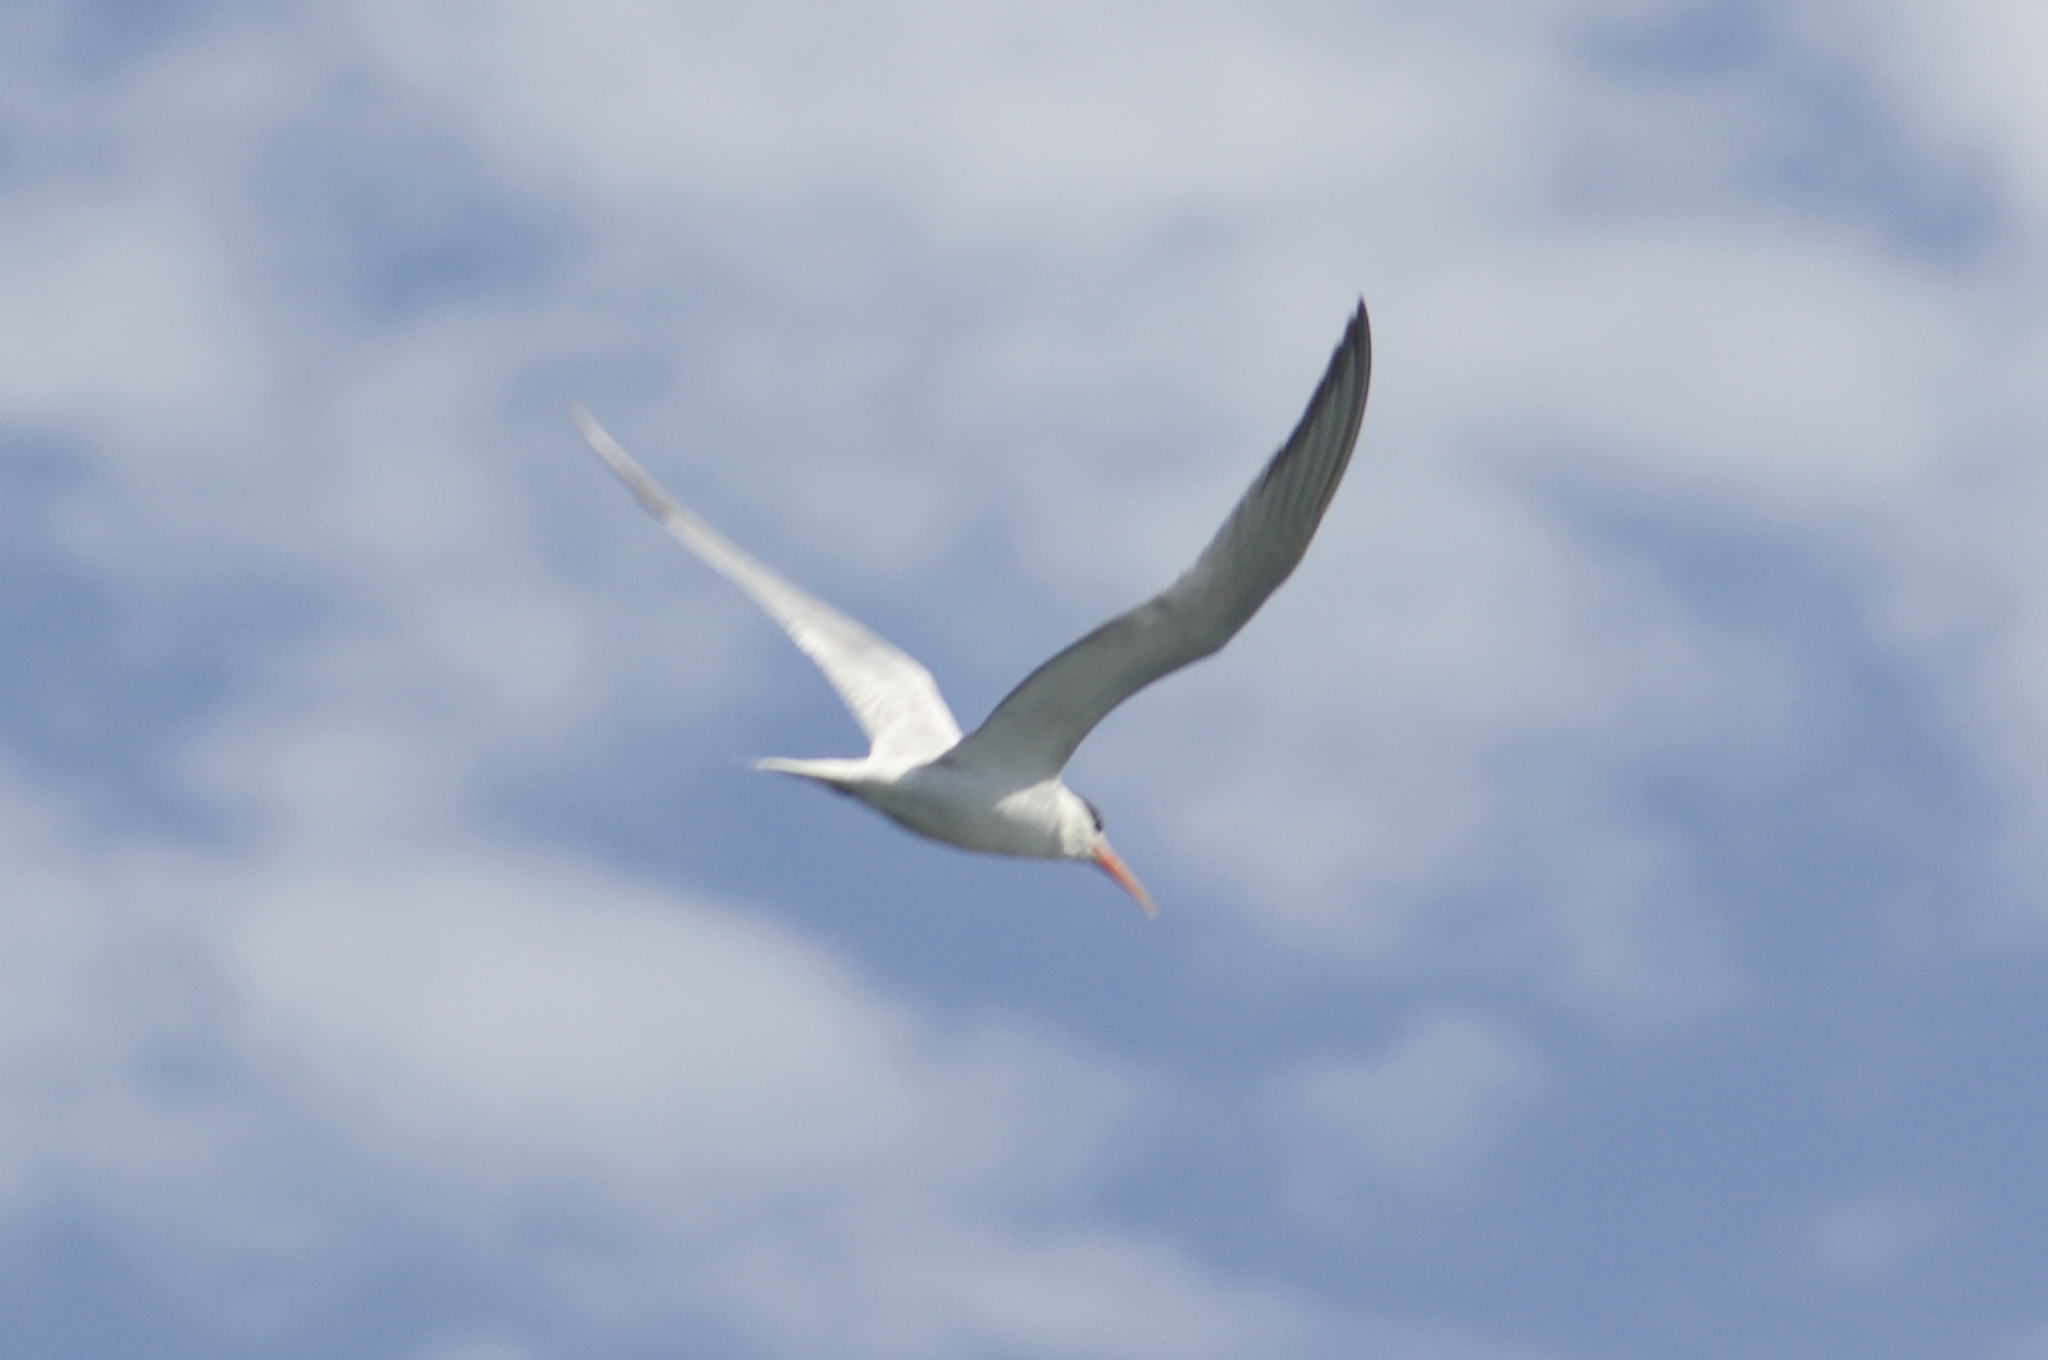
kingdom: Animalia
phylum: Chordata
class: Aves
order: Charadriiformes
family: Laridae
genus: Thalasseus
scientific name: Thalasseus elegans
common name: Elegant tern
